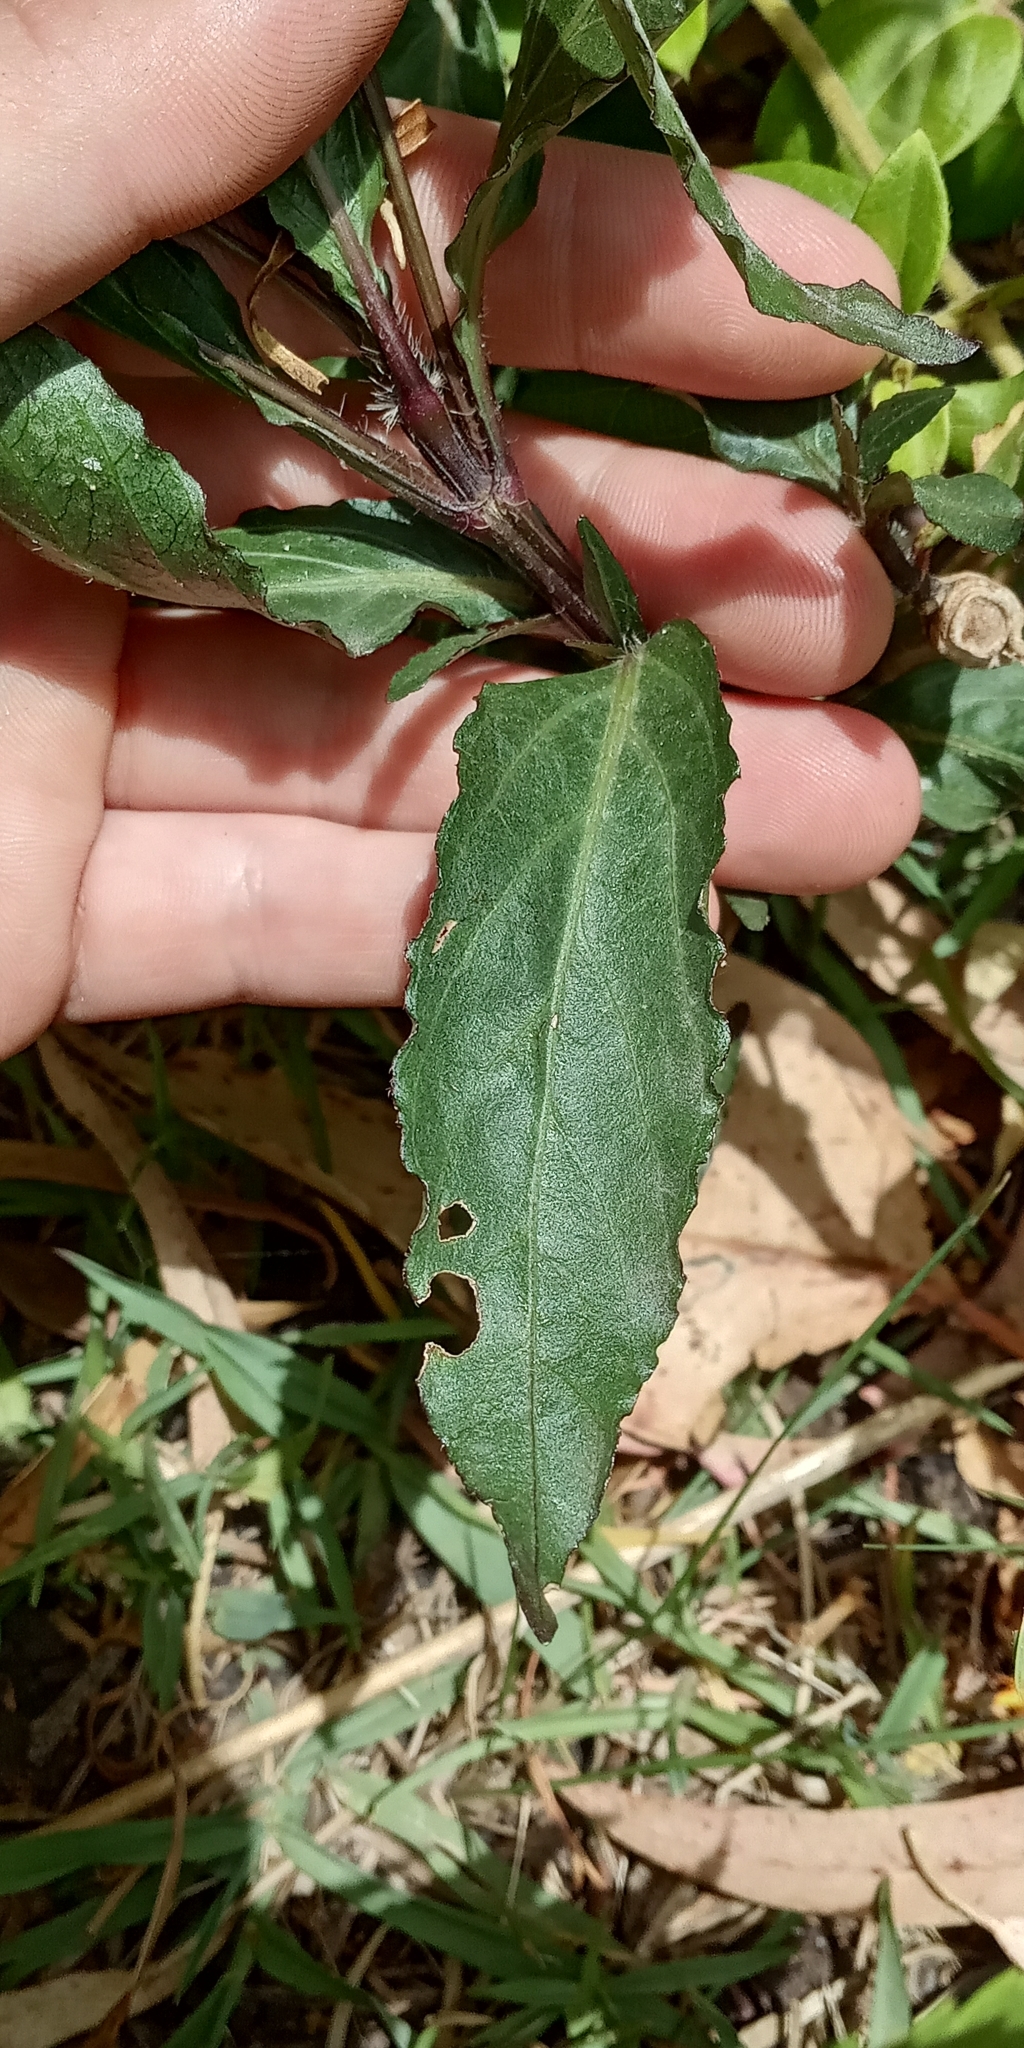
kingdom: Plantae
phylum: Tracheophyta
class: Magnoliopsida
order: Lamiales
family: Acanthaceae
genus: Ruellia
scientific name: Ruellia simplex
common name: Softseed wild petunia
